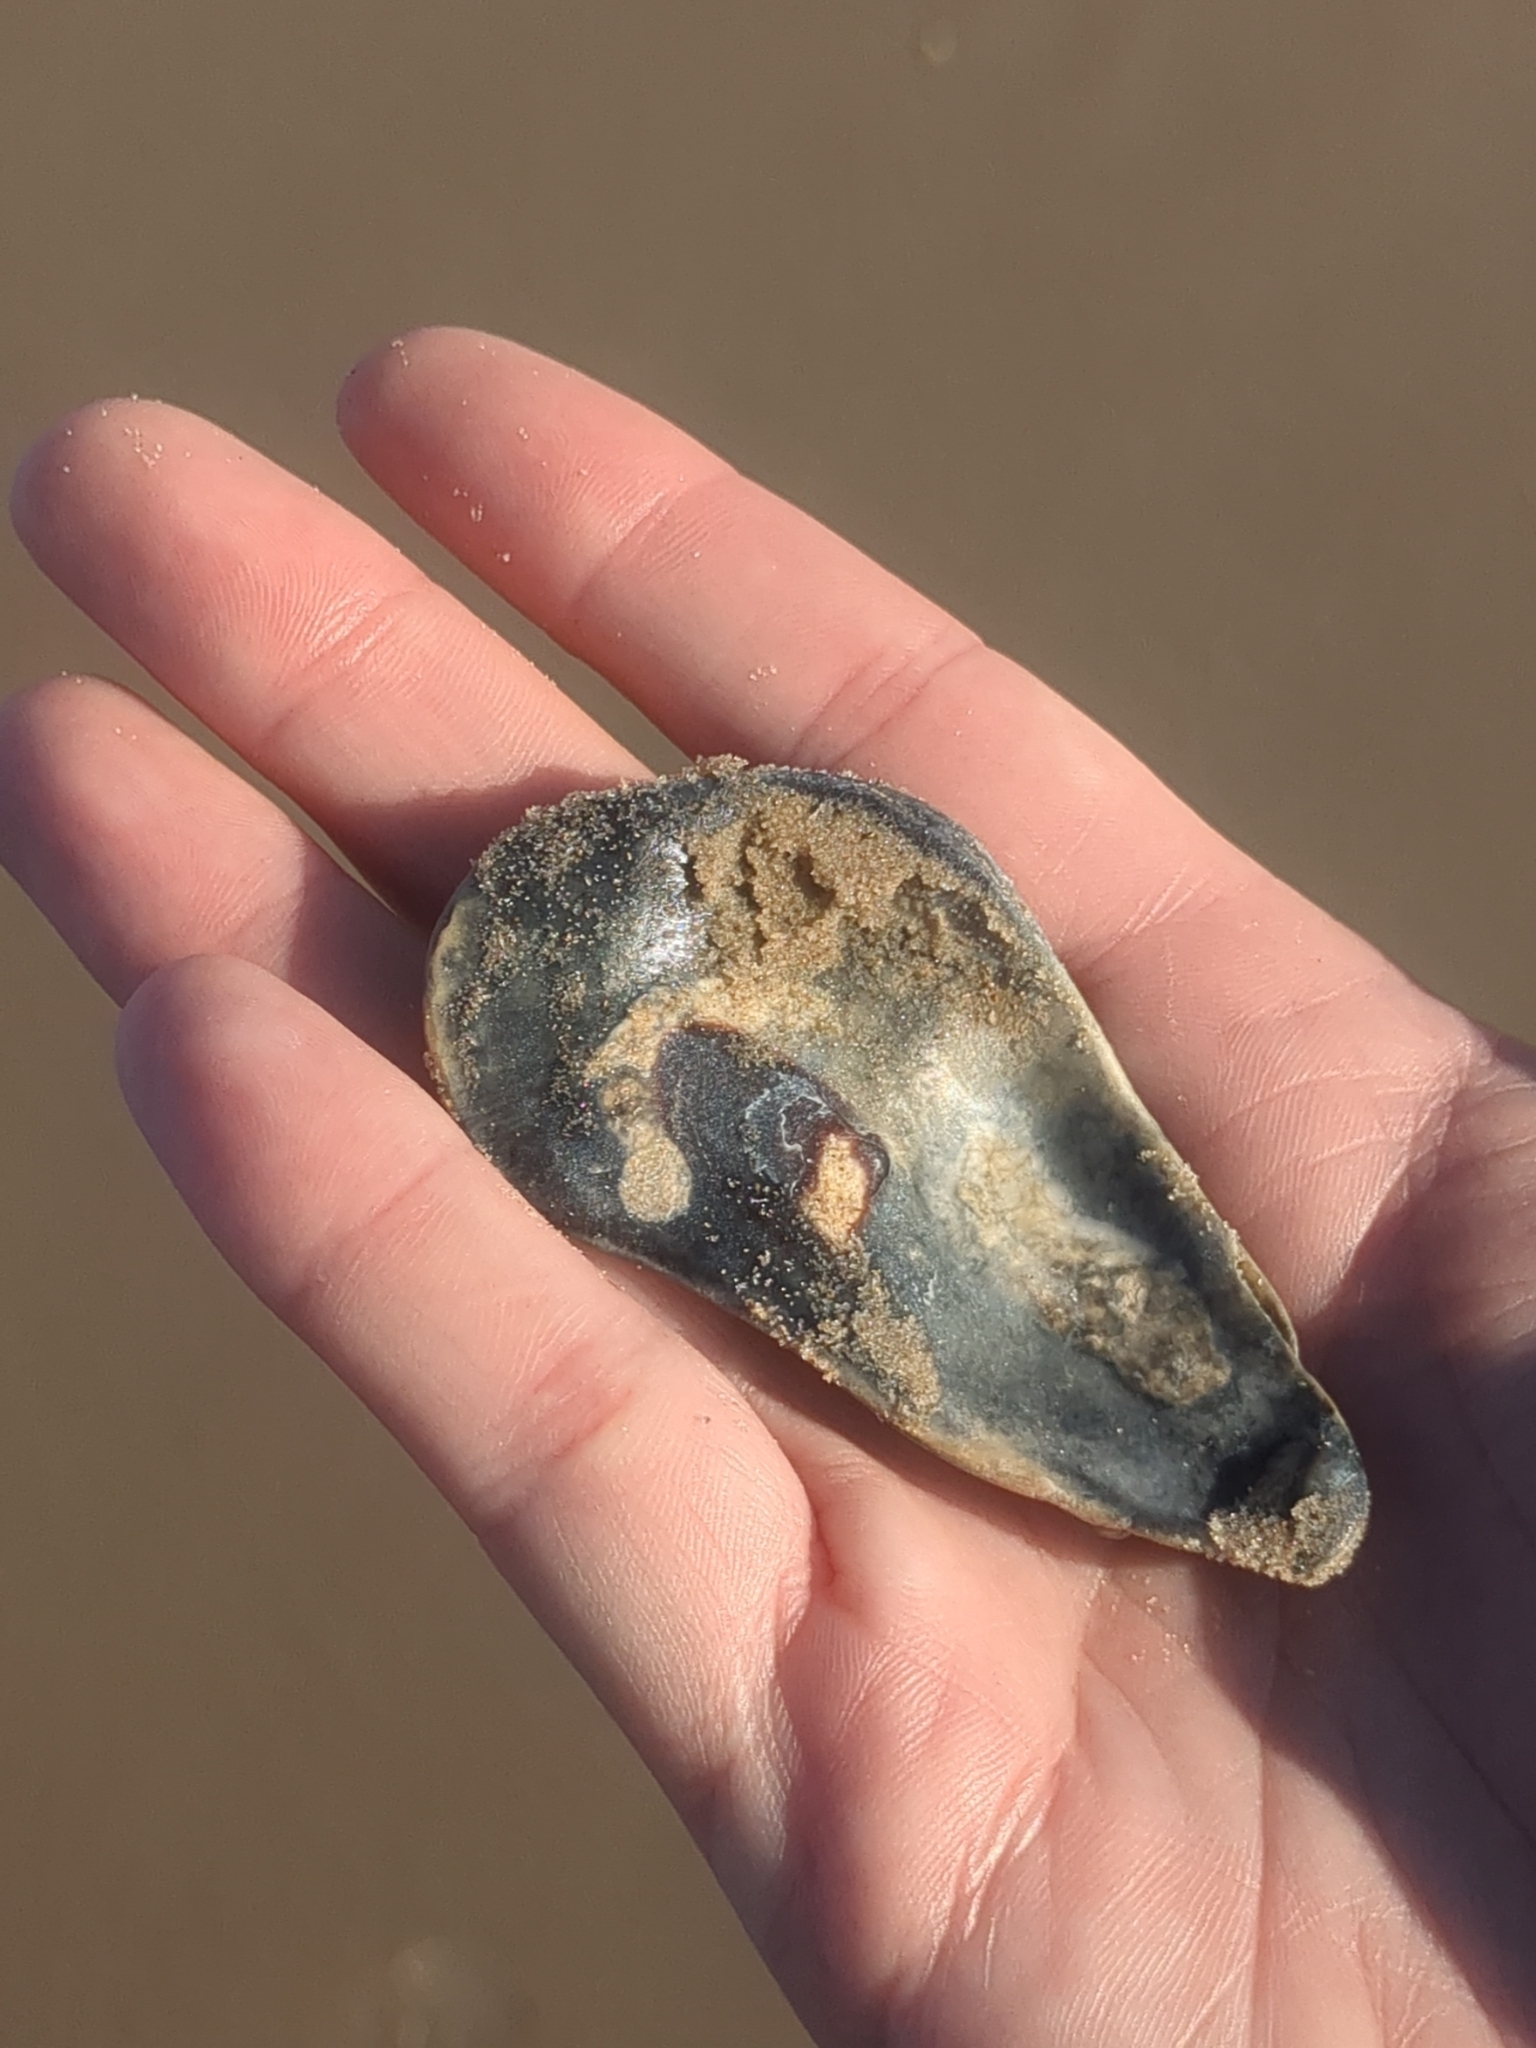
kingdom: Animalia
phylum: Mollusca
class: Bivalvia
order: Ostreida
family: Ostreidae
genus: Crassostrea
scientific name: Crassostrea virginica
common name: American oyster
